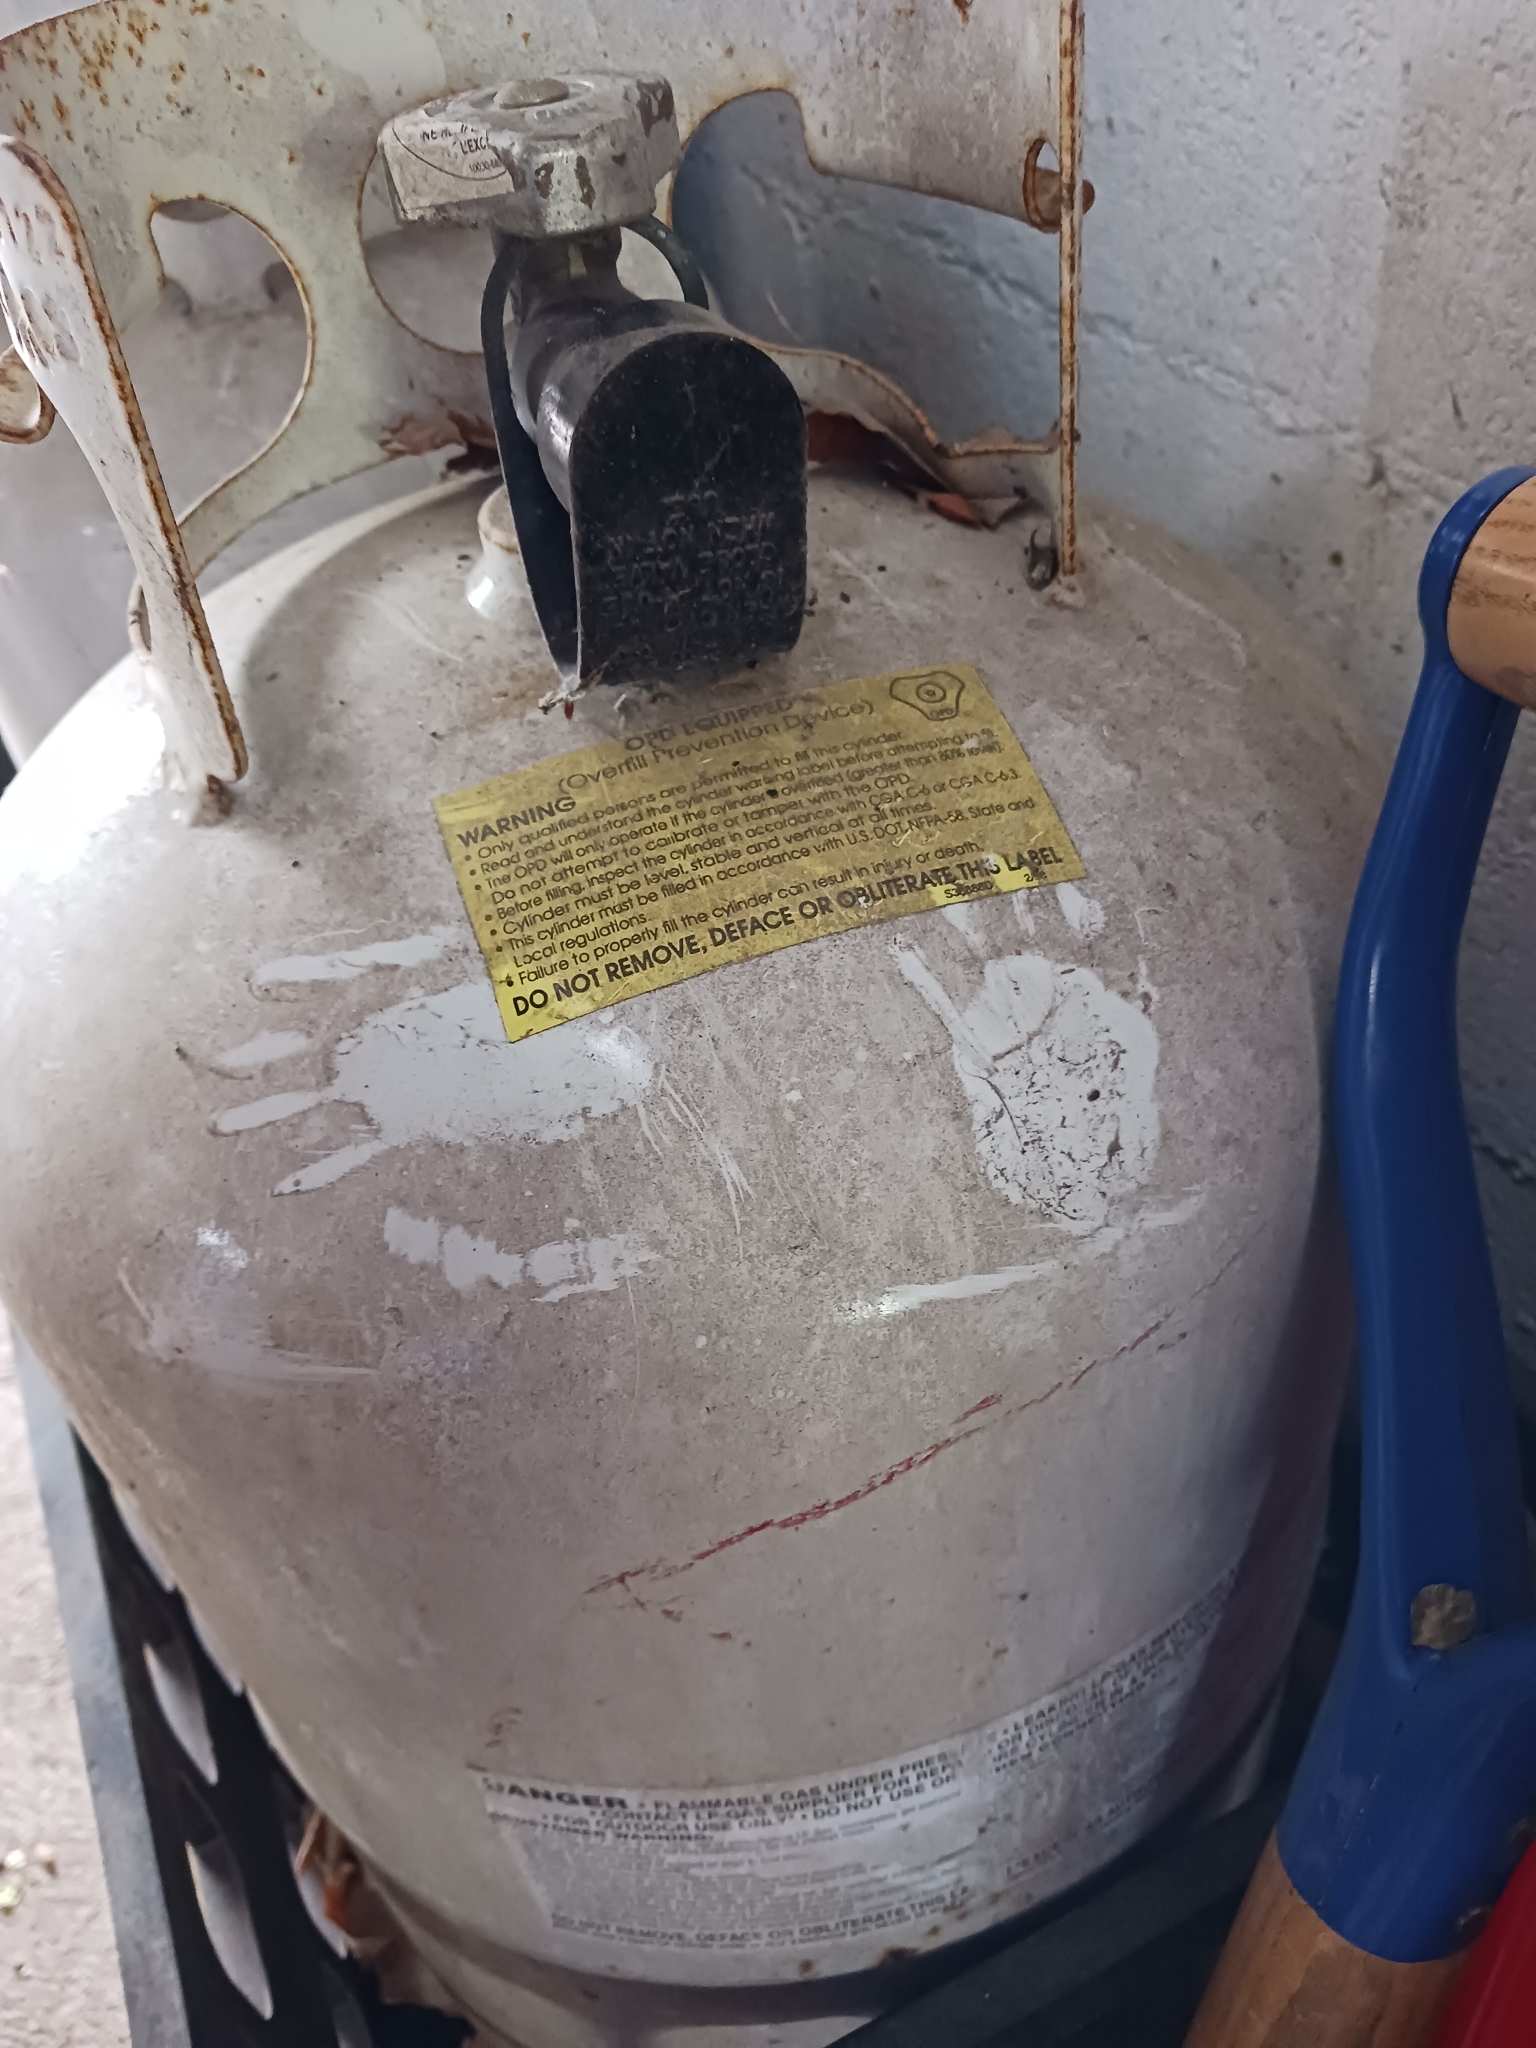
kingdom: Animalia
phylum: Chordata
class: Mammalia
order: Carnivora
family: Procyonidae
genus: Procyon
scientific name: Procyon lotor
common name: Raccoon
